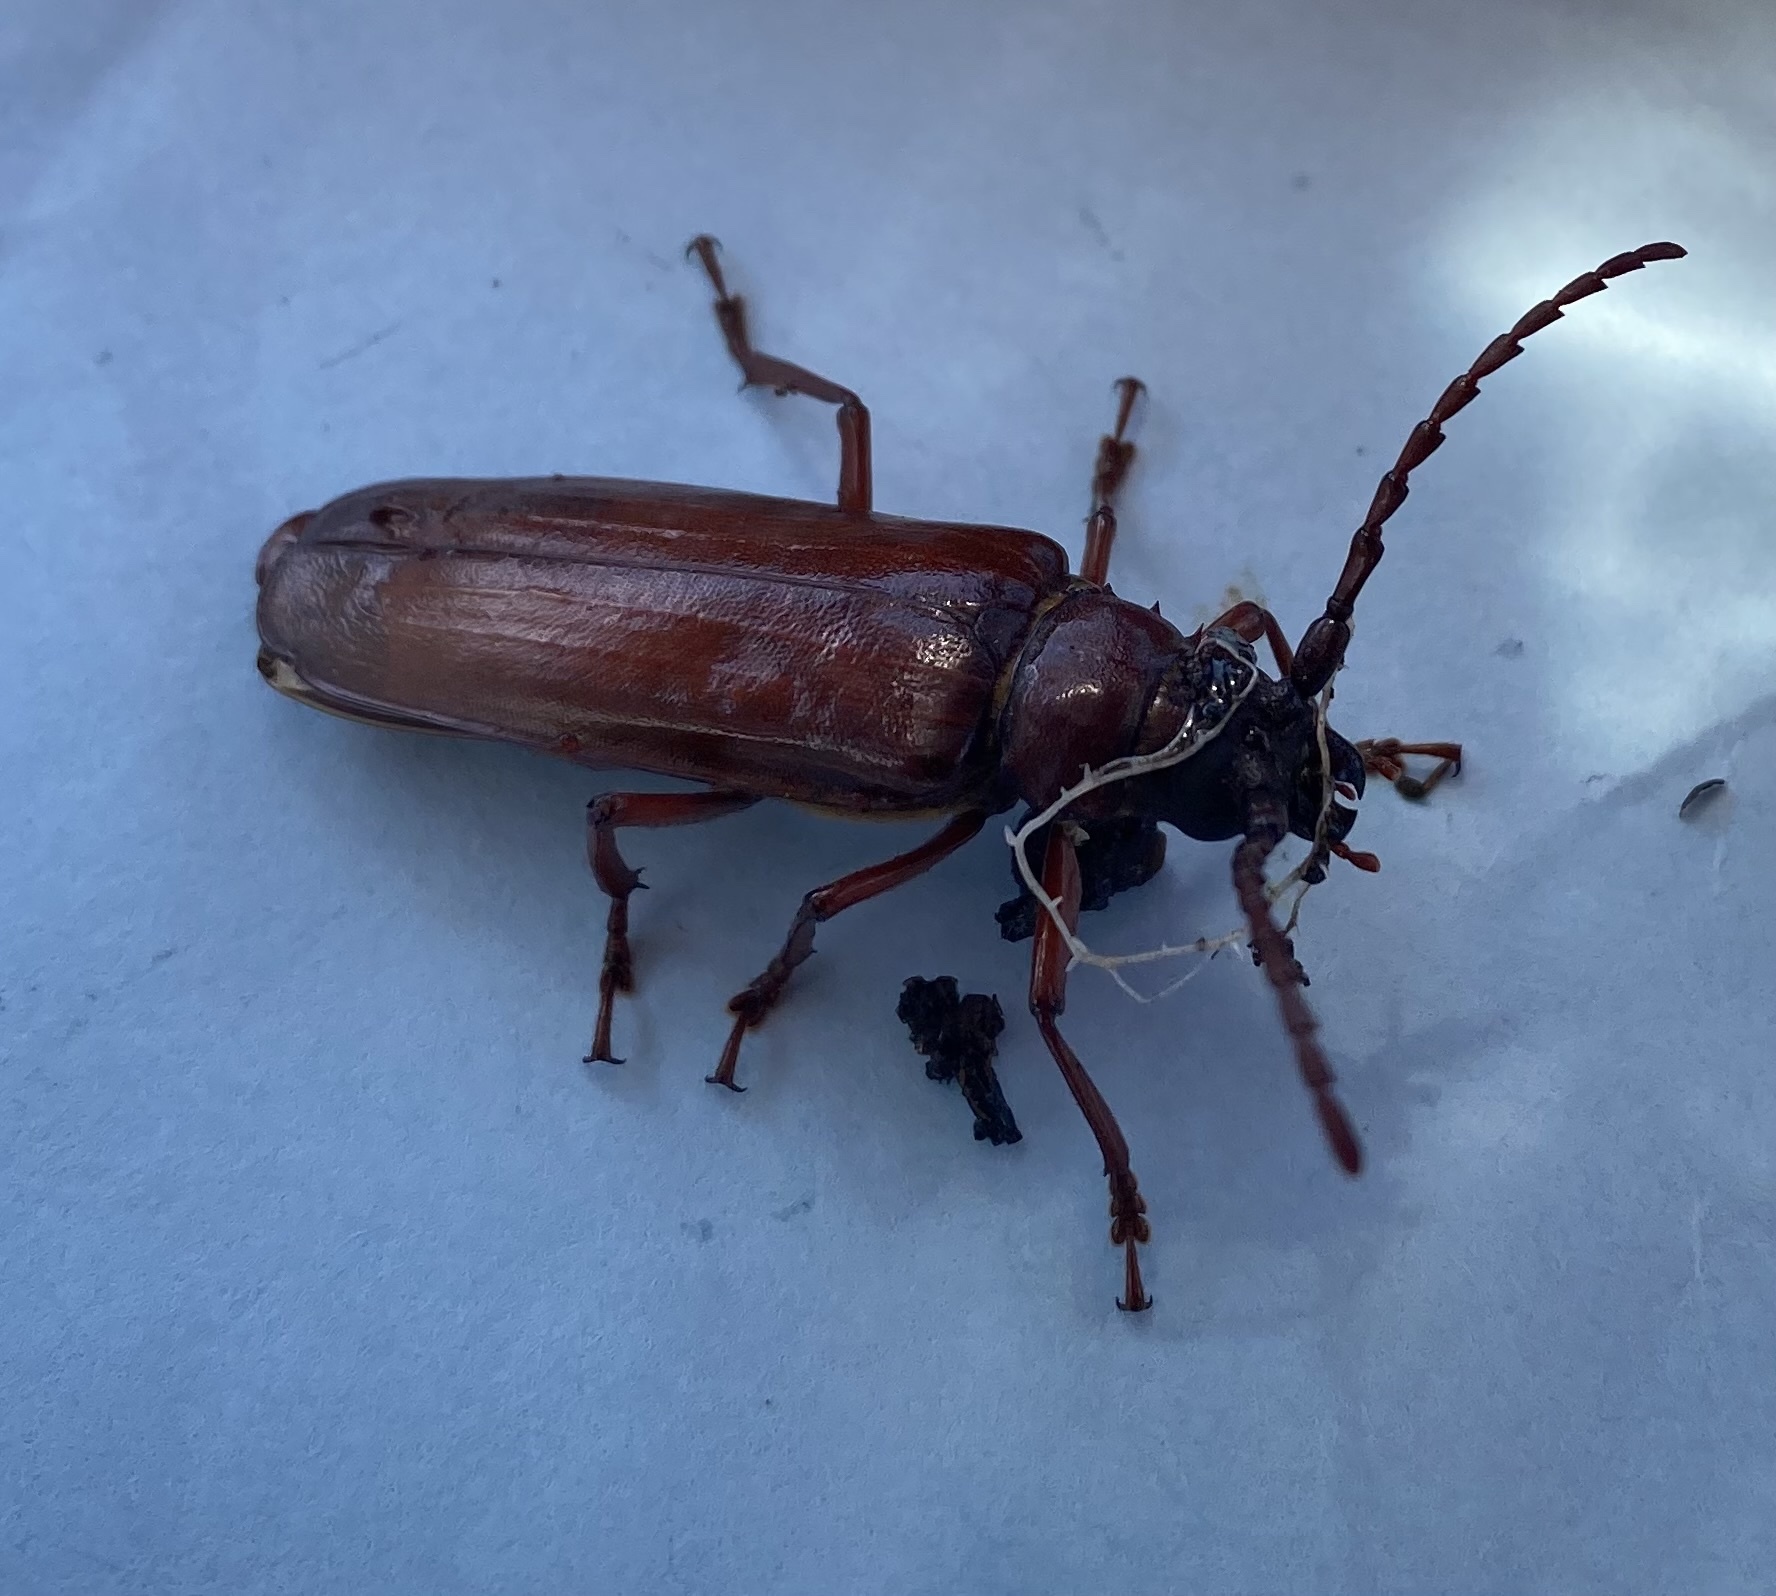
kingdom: Animalia
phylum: Arthropoda
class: Insecta
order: Coleoptera
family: Cerambycidae
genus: Orthosoma
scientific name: Orthosoma brunneum
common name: Brown prionid beetle
